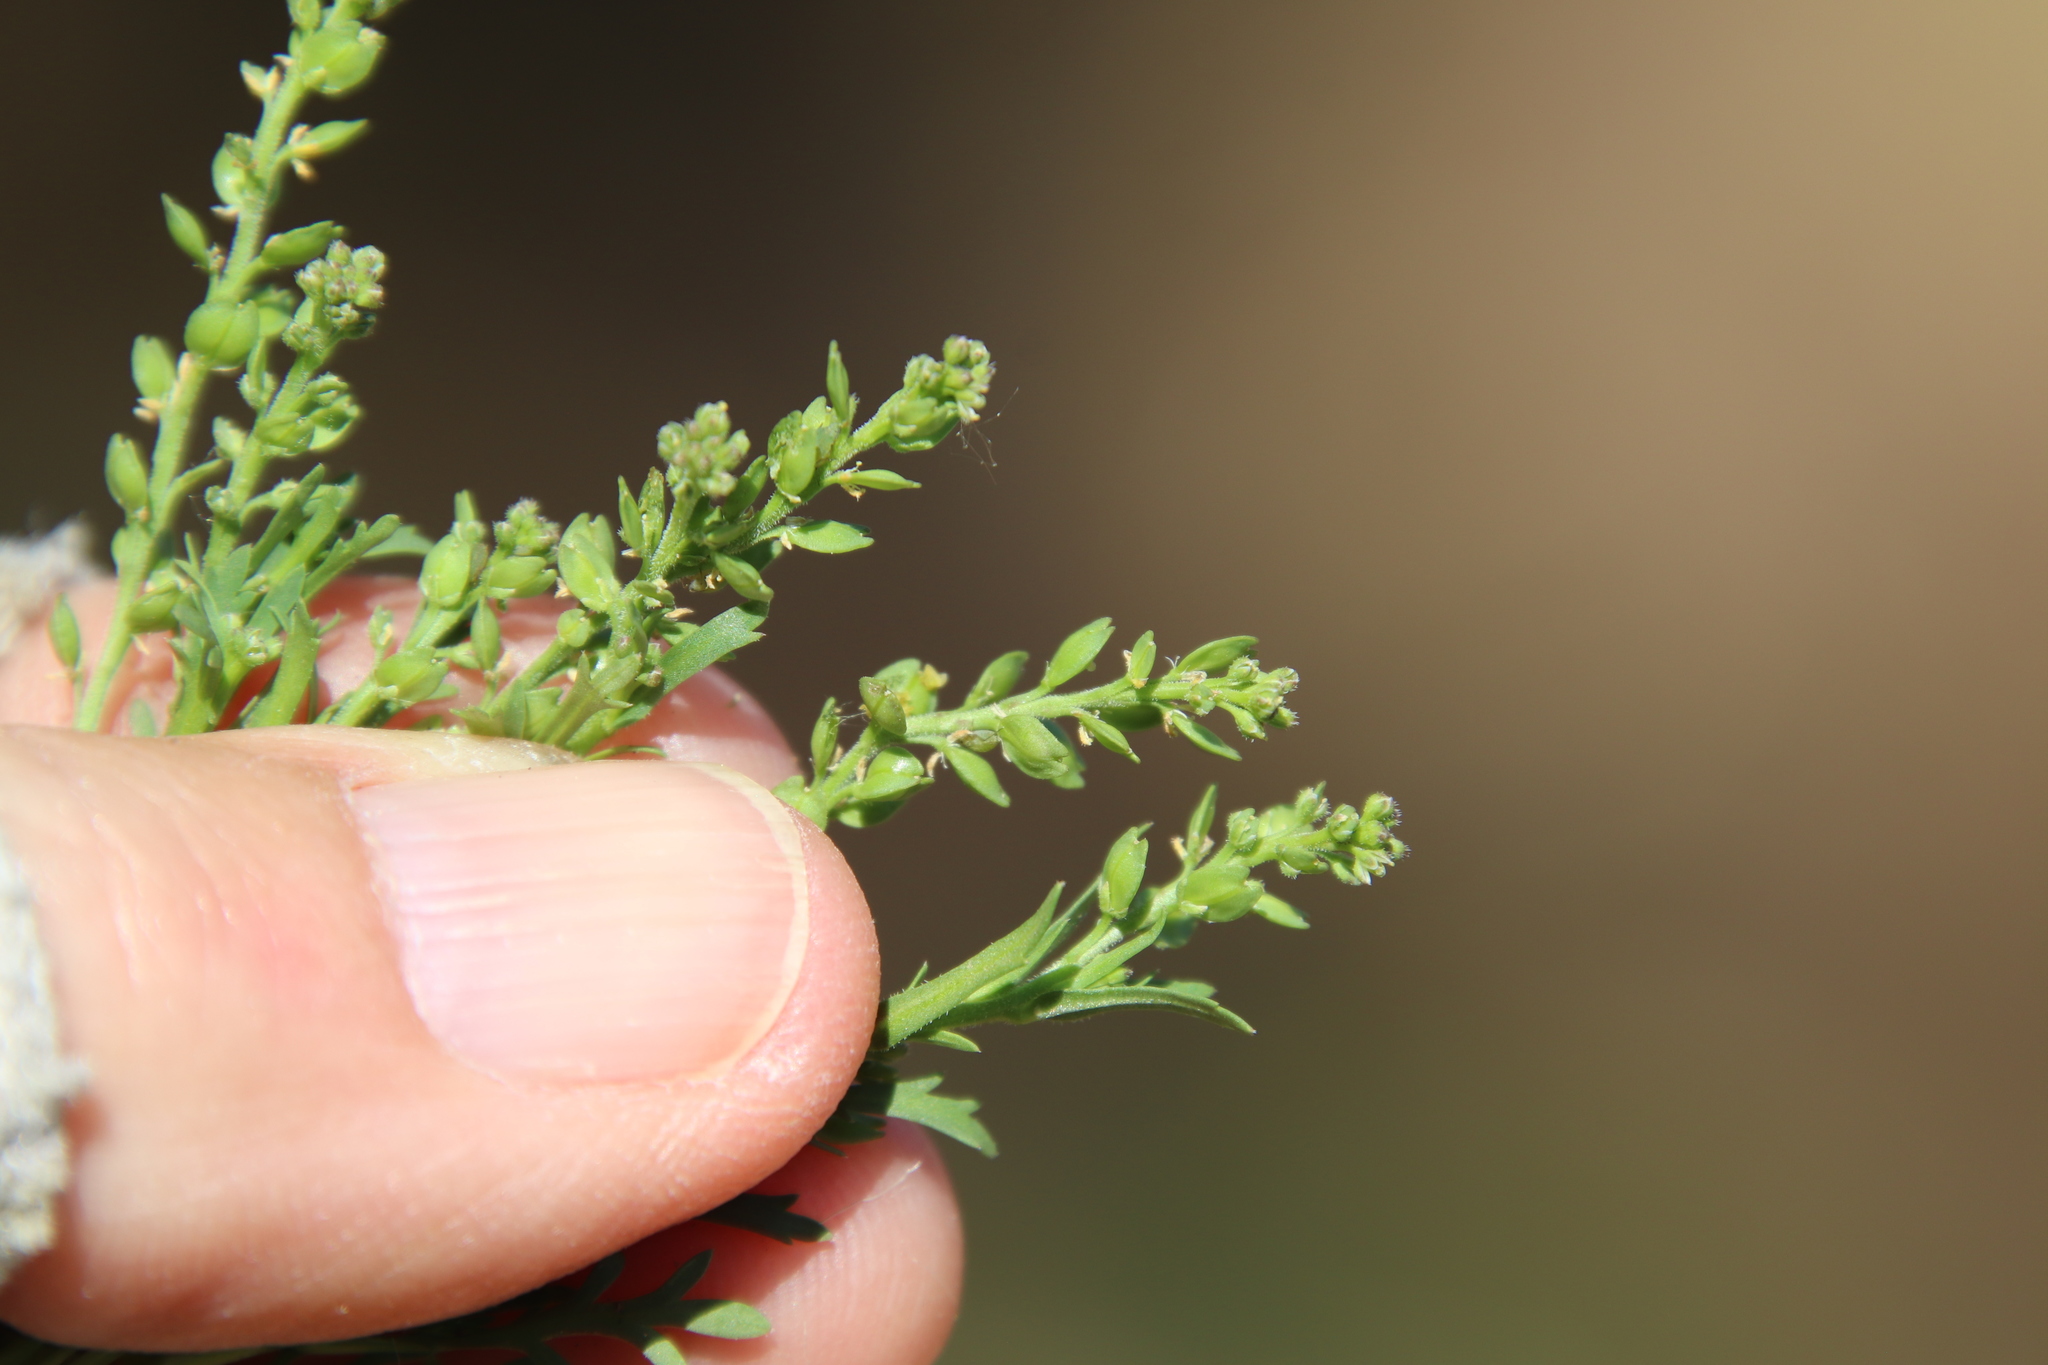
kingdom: Plantae
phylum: Tracheophyta
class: Magnoliopsida
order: Brassicales
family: Brassicaceae
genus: Lepidium
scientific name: Lepidium strictum
